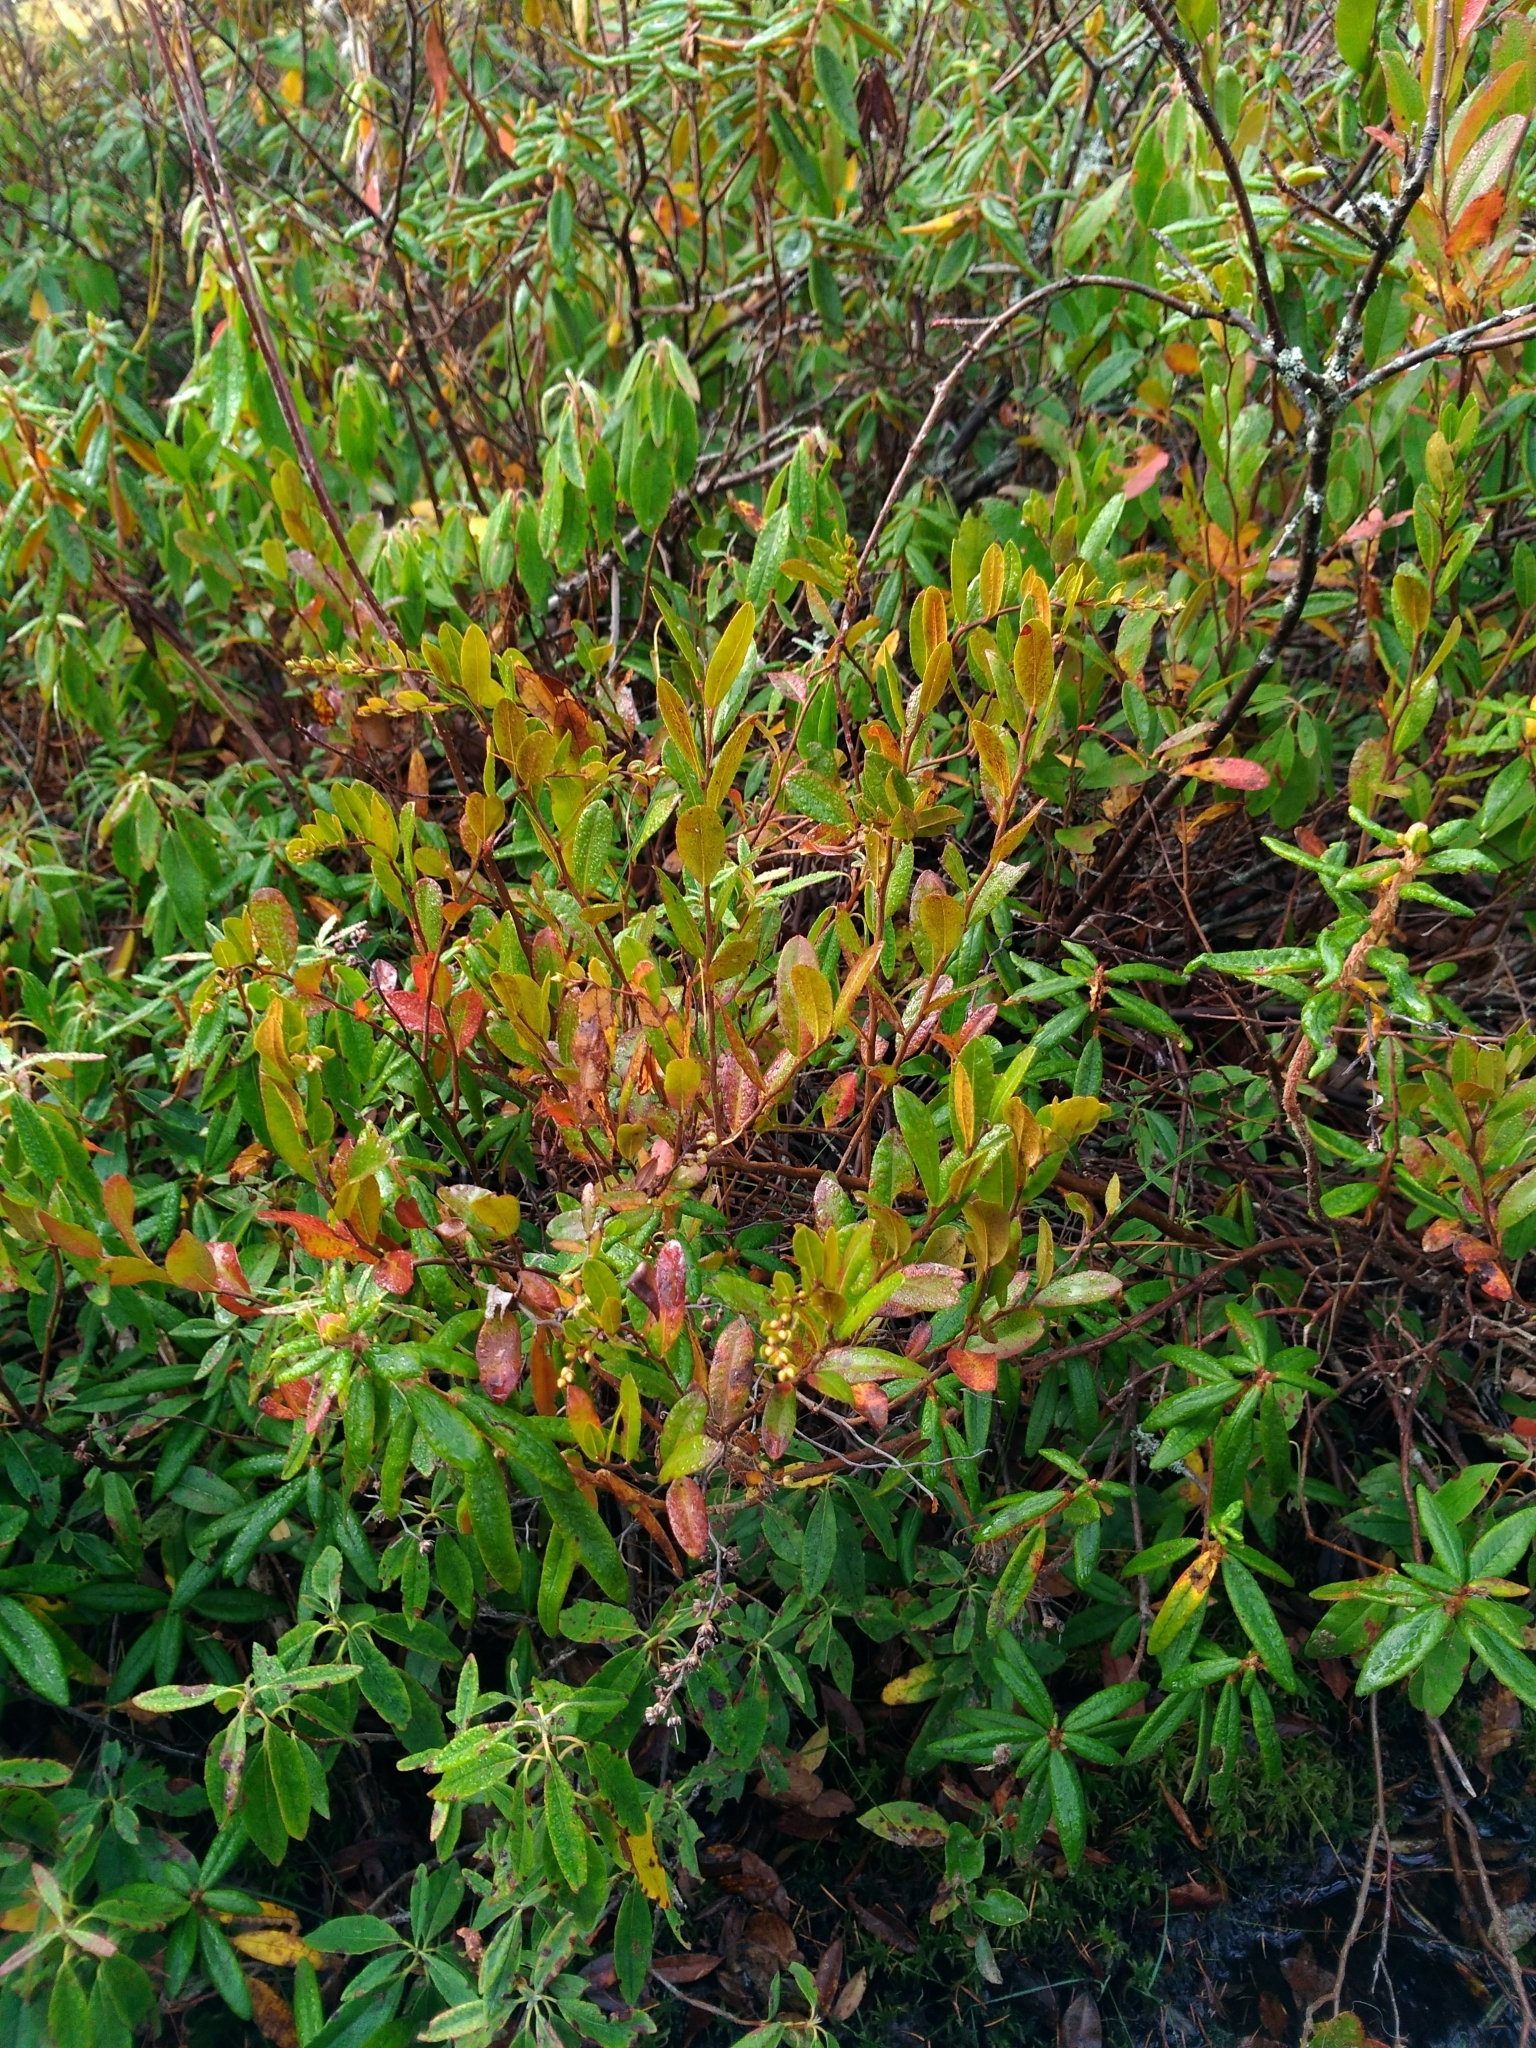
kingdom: Plantae
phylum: Tracheophyta
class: Magnoliopsida
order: Ericales
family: Ericaceae
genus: Chamaedaphne
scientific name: Chamaedaphne calyculata
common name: Leatherleaf
